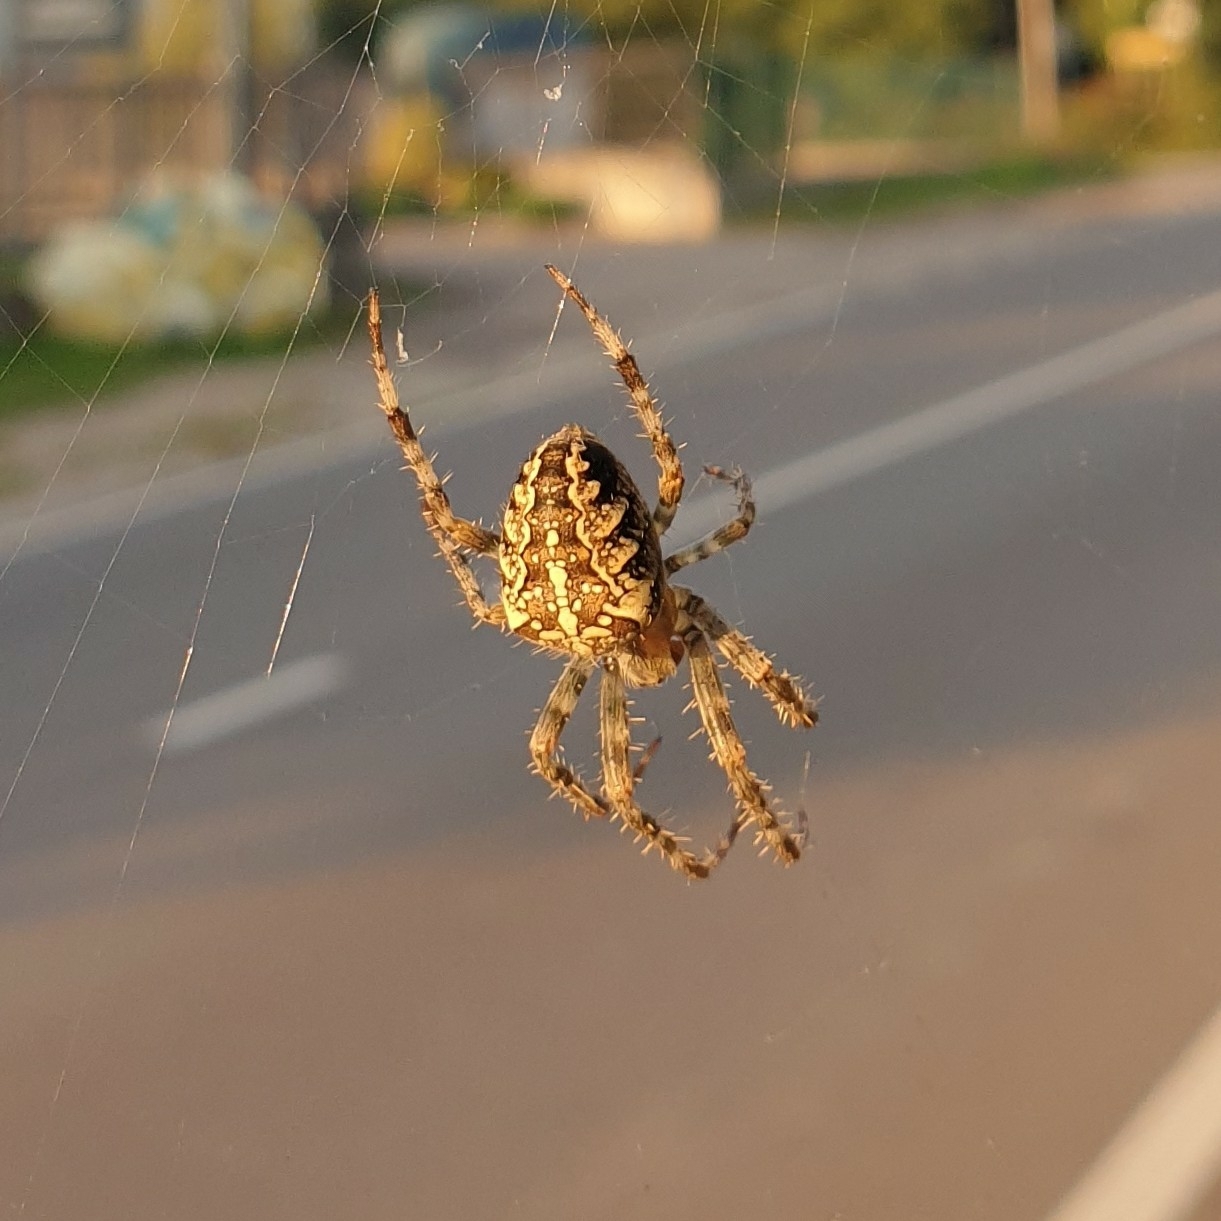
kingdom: Animalia
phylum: Arthropoda
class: Arachnida
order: Araneae
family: Araneidae
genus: Araneus
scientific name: Araneus diadematus
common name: Cross orbweaver
